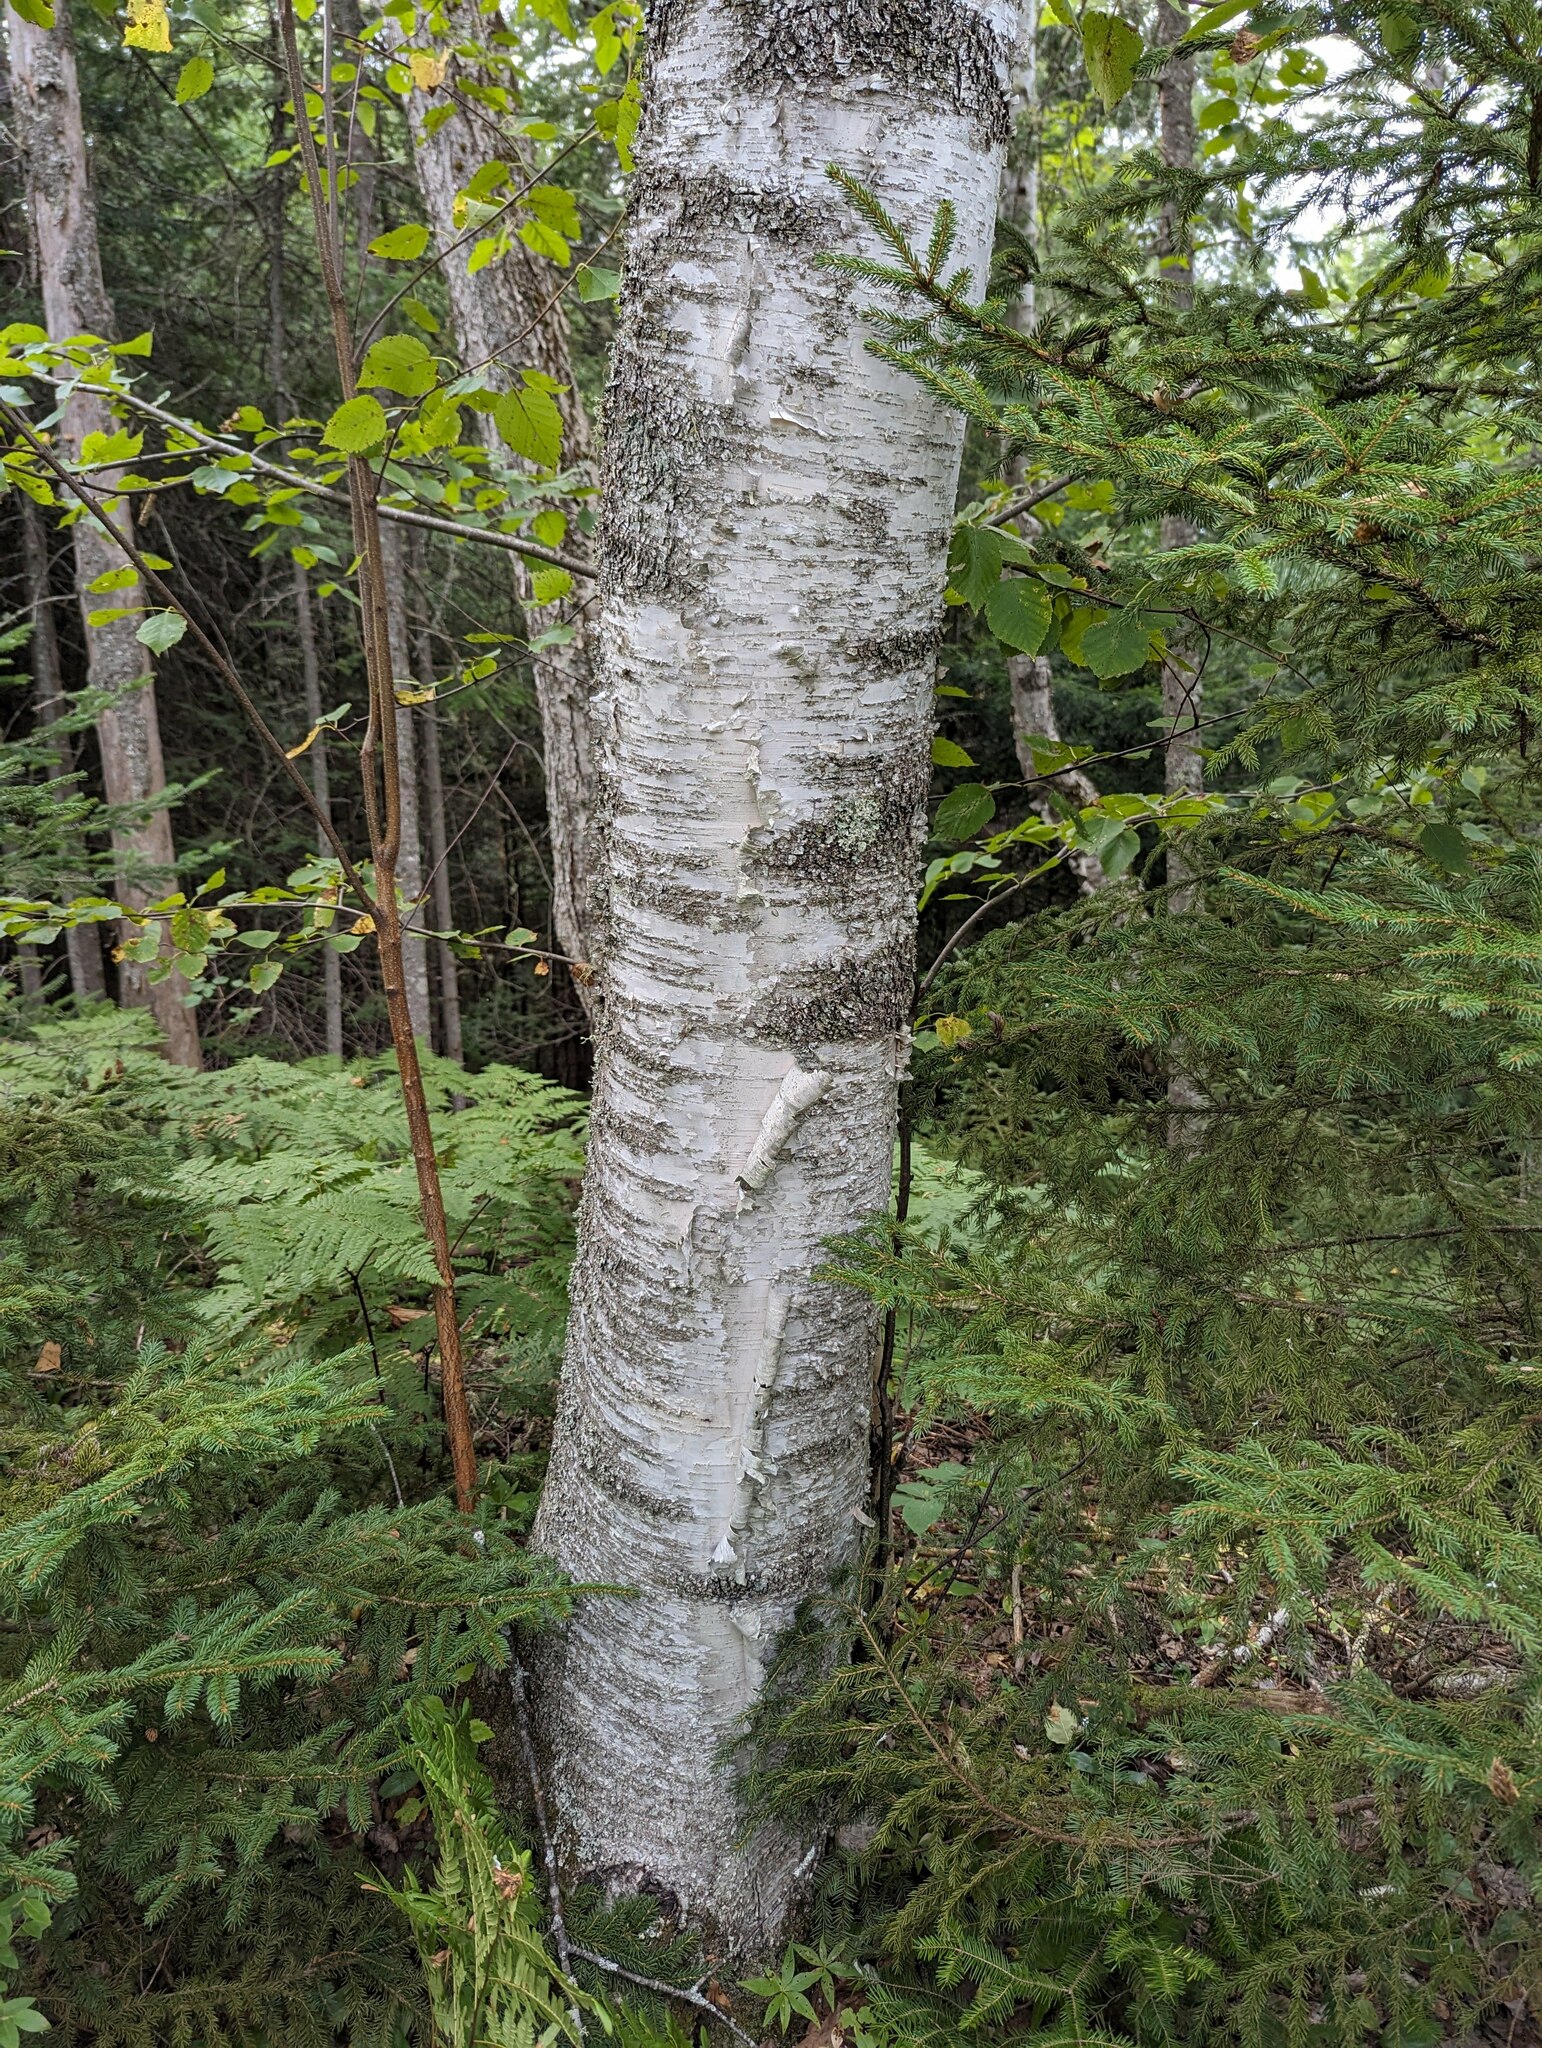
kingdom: Plantae
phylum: Tracheophyta
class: Magnoliopsida
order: Fagales
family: Betulaceae
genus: Betula
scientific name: Betula papyrifera
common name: Paper birch
